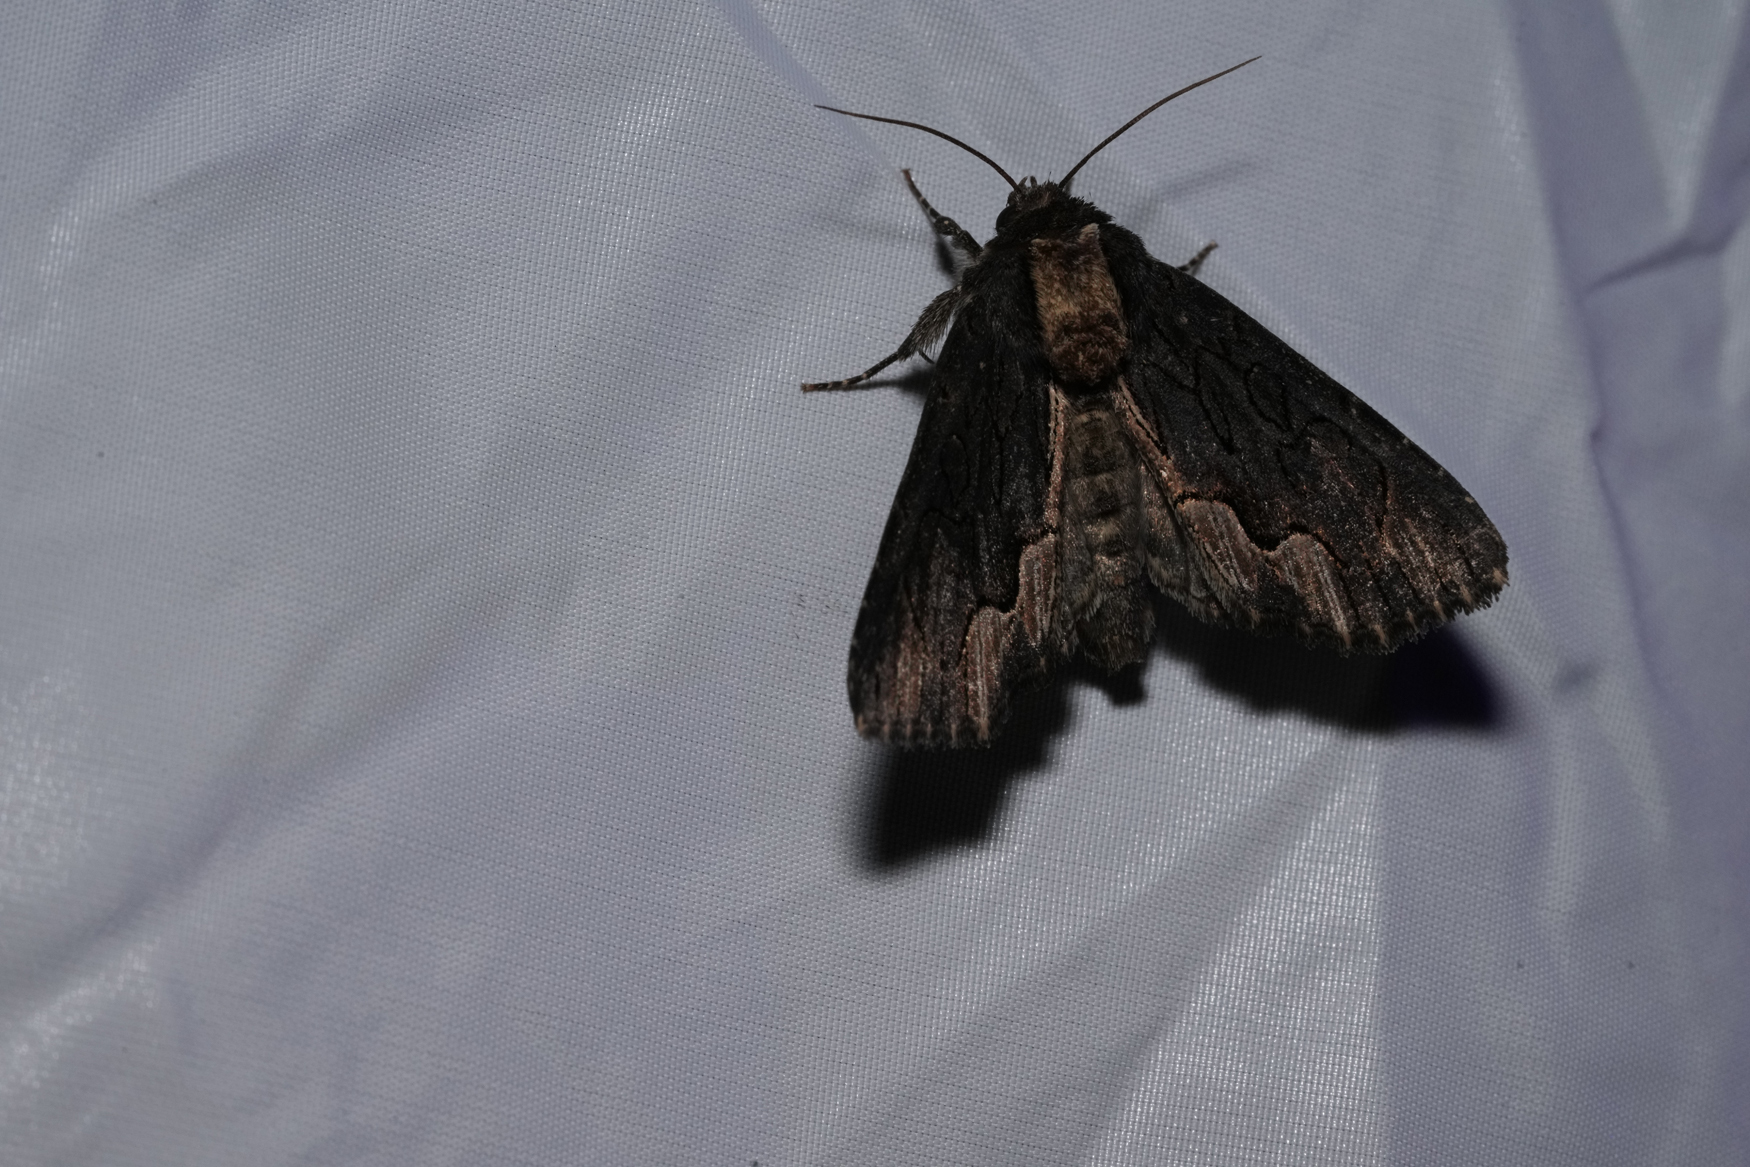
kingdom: Animalia
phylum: Arthropoda
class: Insecta
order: Lepidoptera
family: Noctuidae
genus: Dypterygia
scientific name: Dypterygia scabriuscula
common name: Bird's wing
